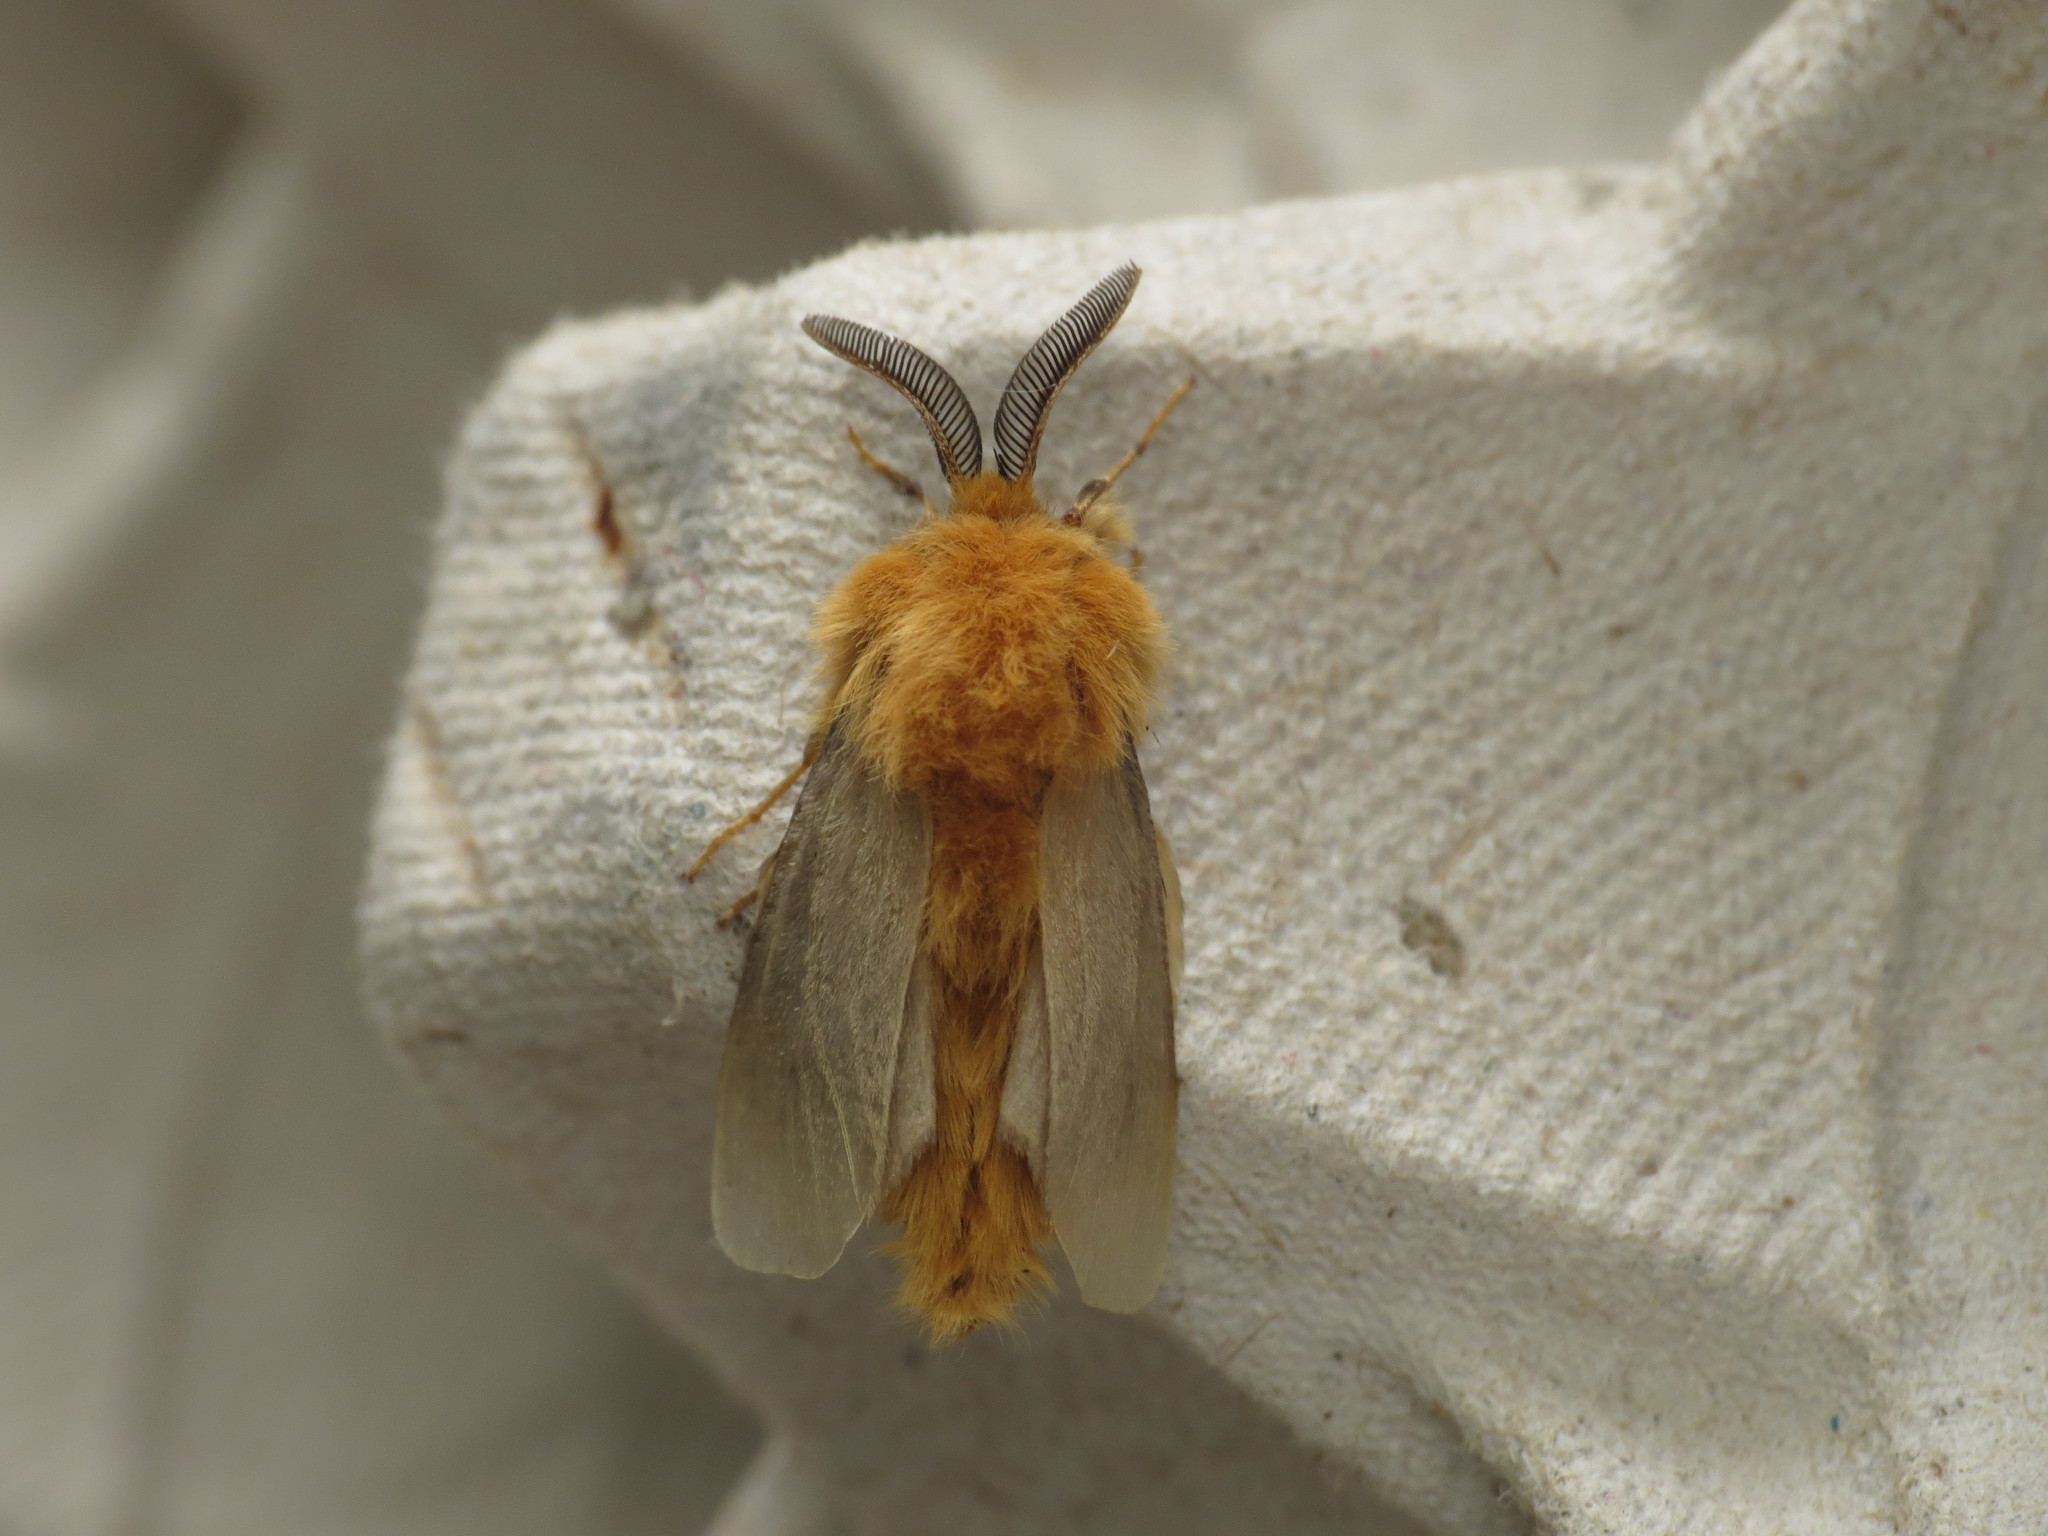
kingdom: Animalia
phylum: Arthropoda
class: Insecta
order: Lepidoptera
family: Psychidae
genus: Lomera
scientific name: Lomera boisduvali
